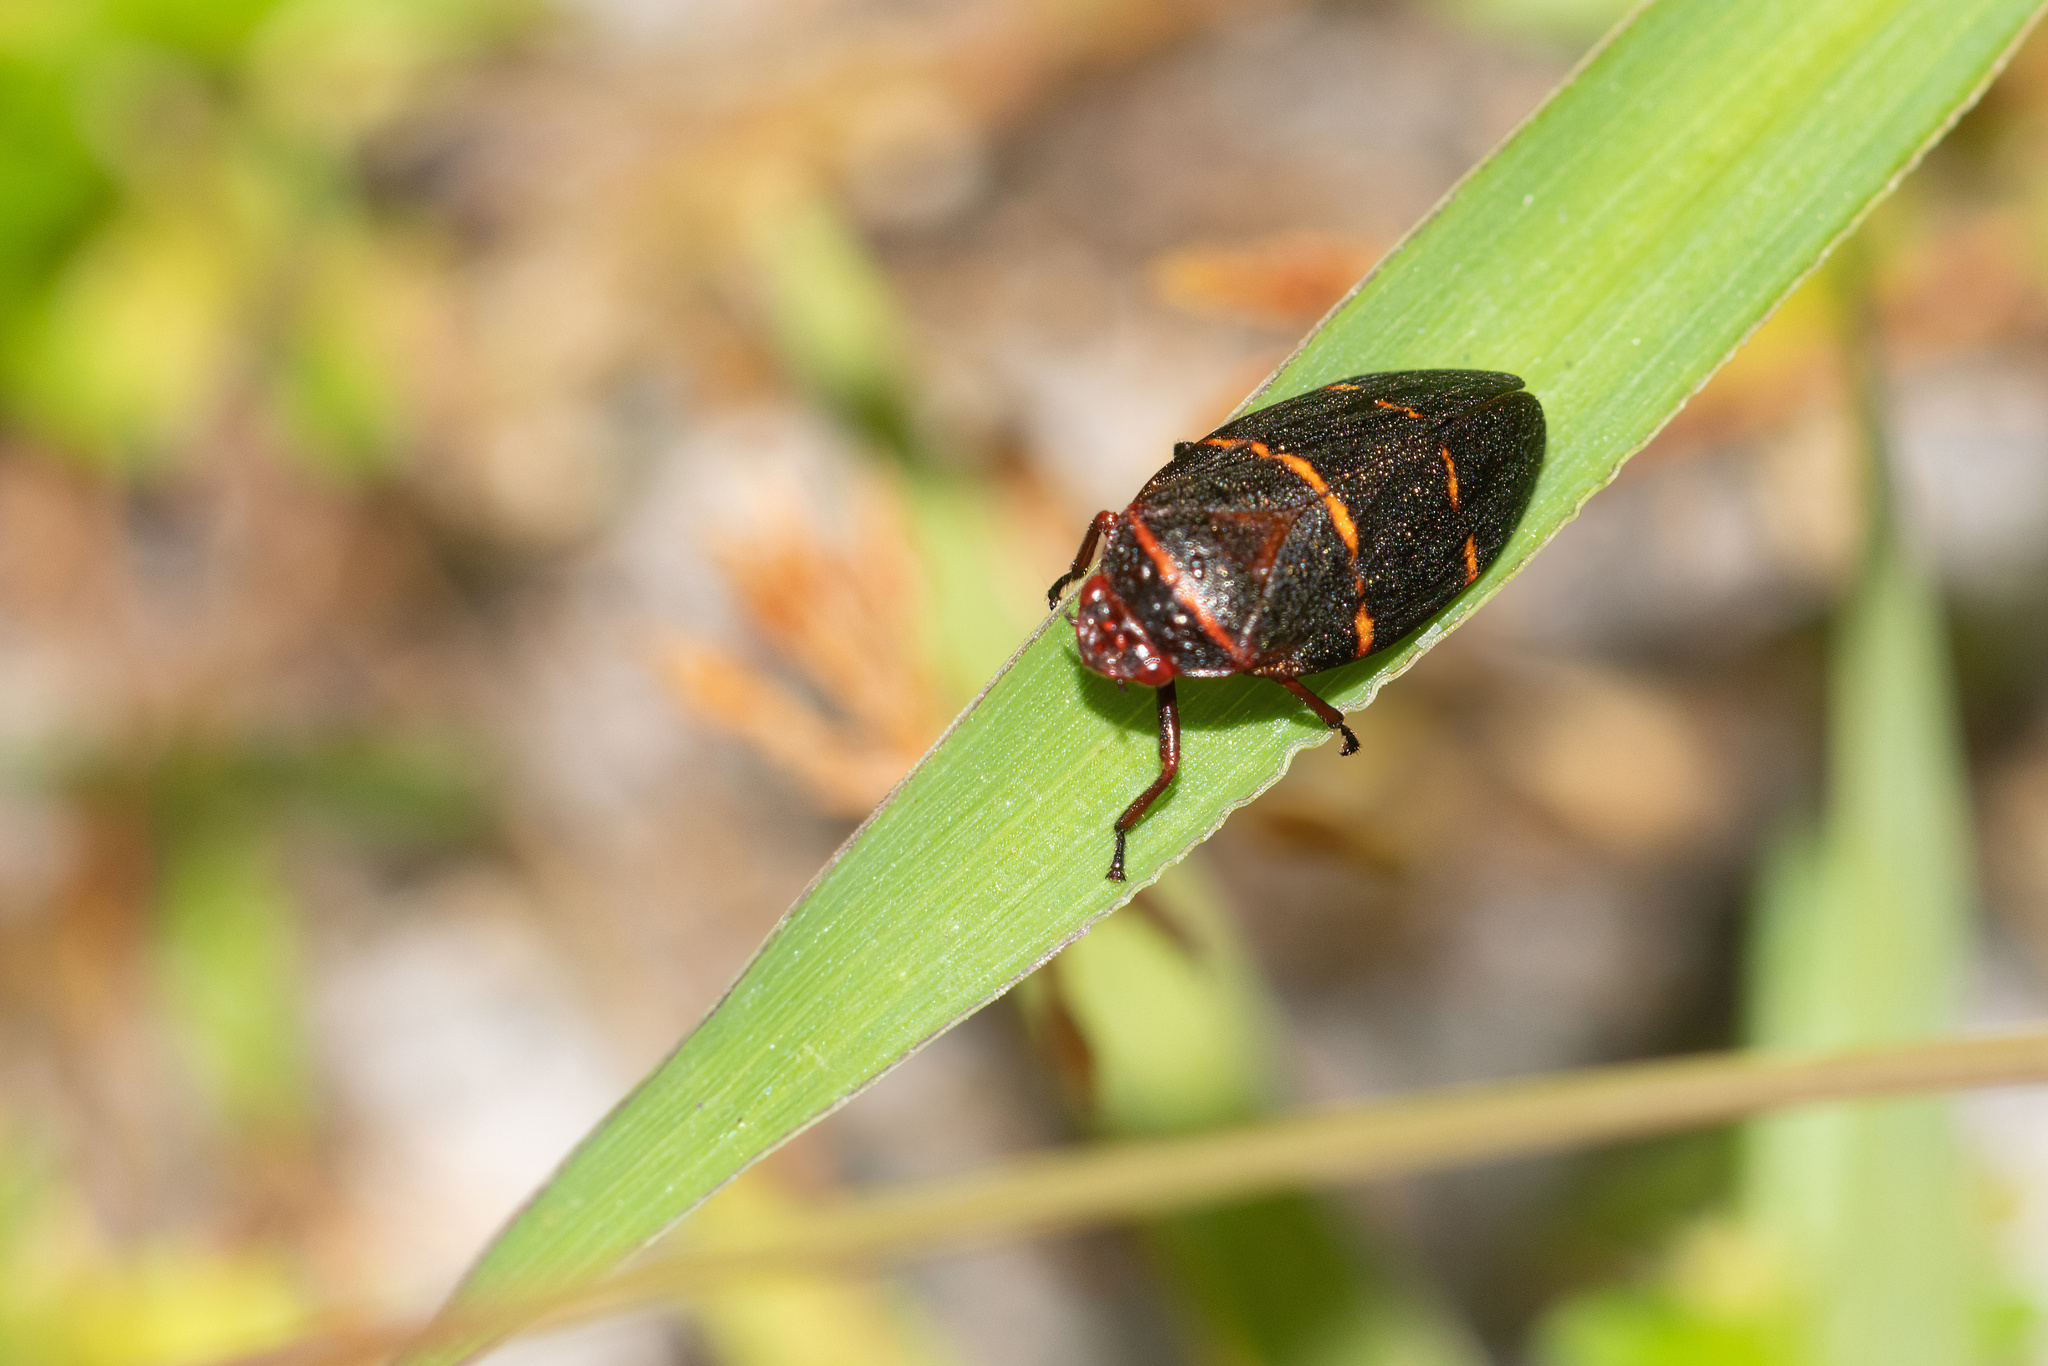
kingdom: Animalia
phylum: Arthropoda
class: Insecta
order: Hemiptera
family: Cercopidae
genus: Prosapia
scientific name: Prosapia bicincta
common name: Twolined spittlebug
